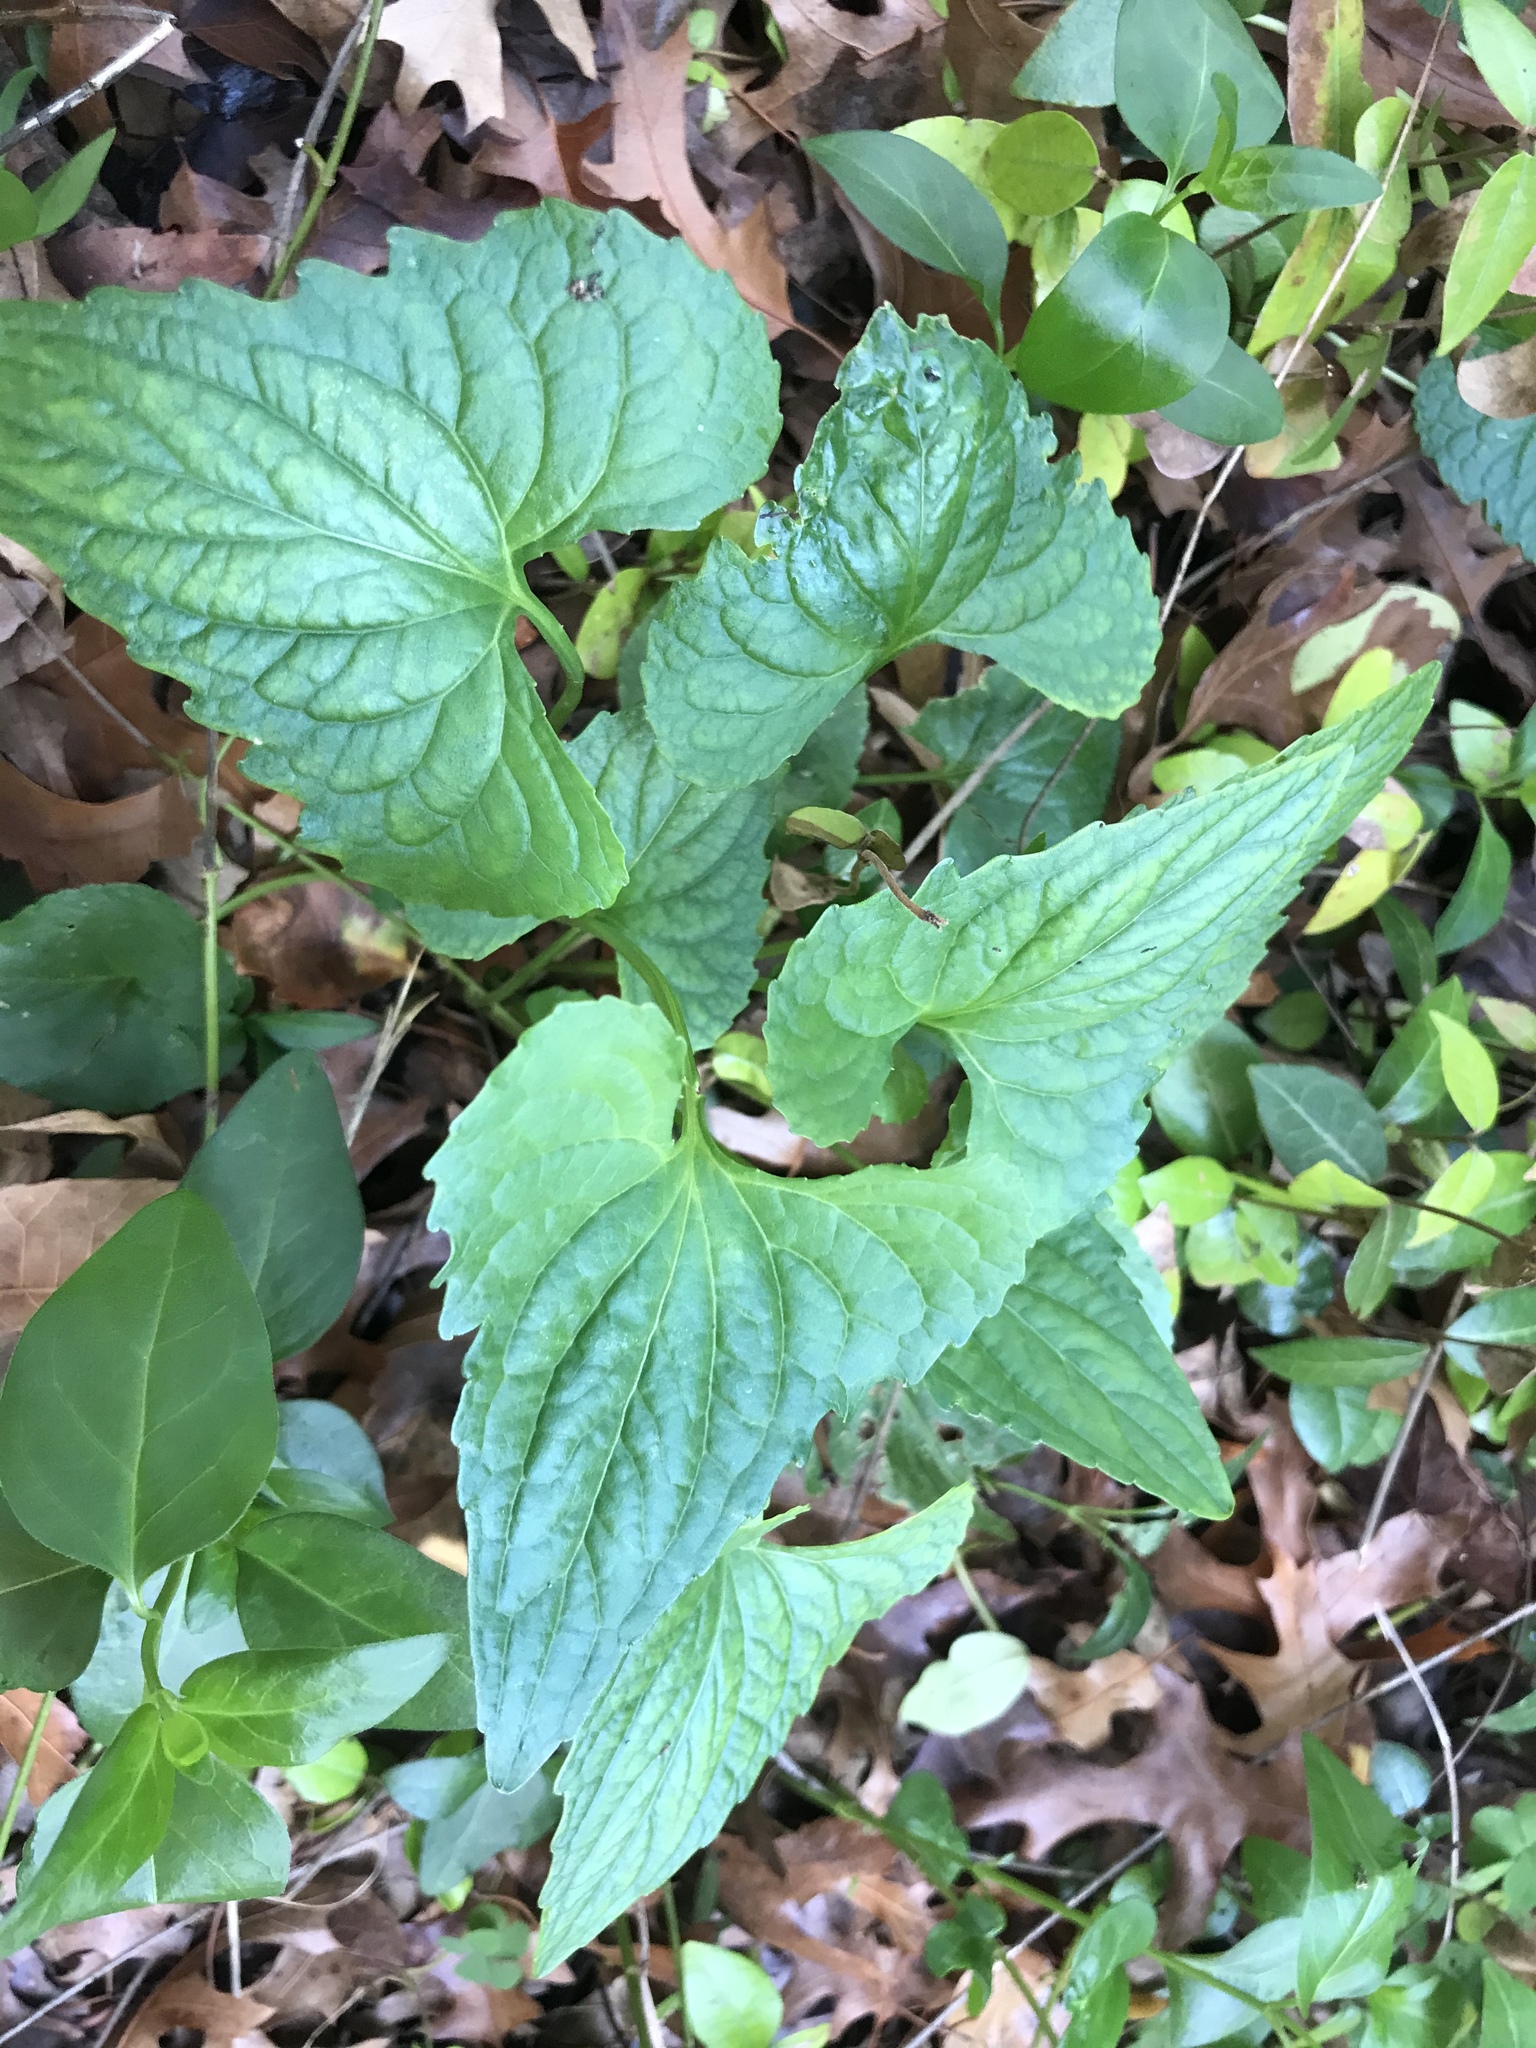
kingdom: Plantae
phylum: Tracheophyta
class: Magnoliopsida
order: Malpighiales
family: Violaceae
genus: Viola
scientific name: Viola missouriensis
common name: Missouri violet
